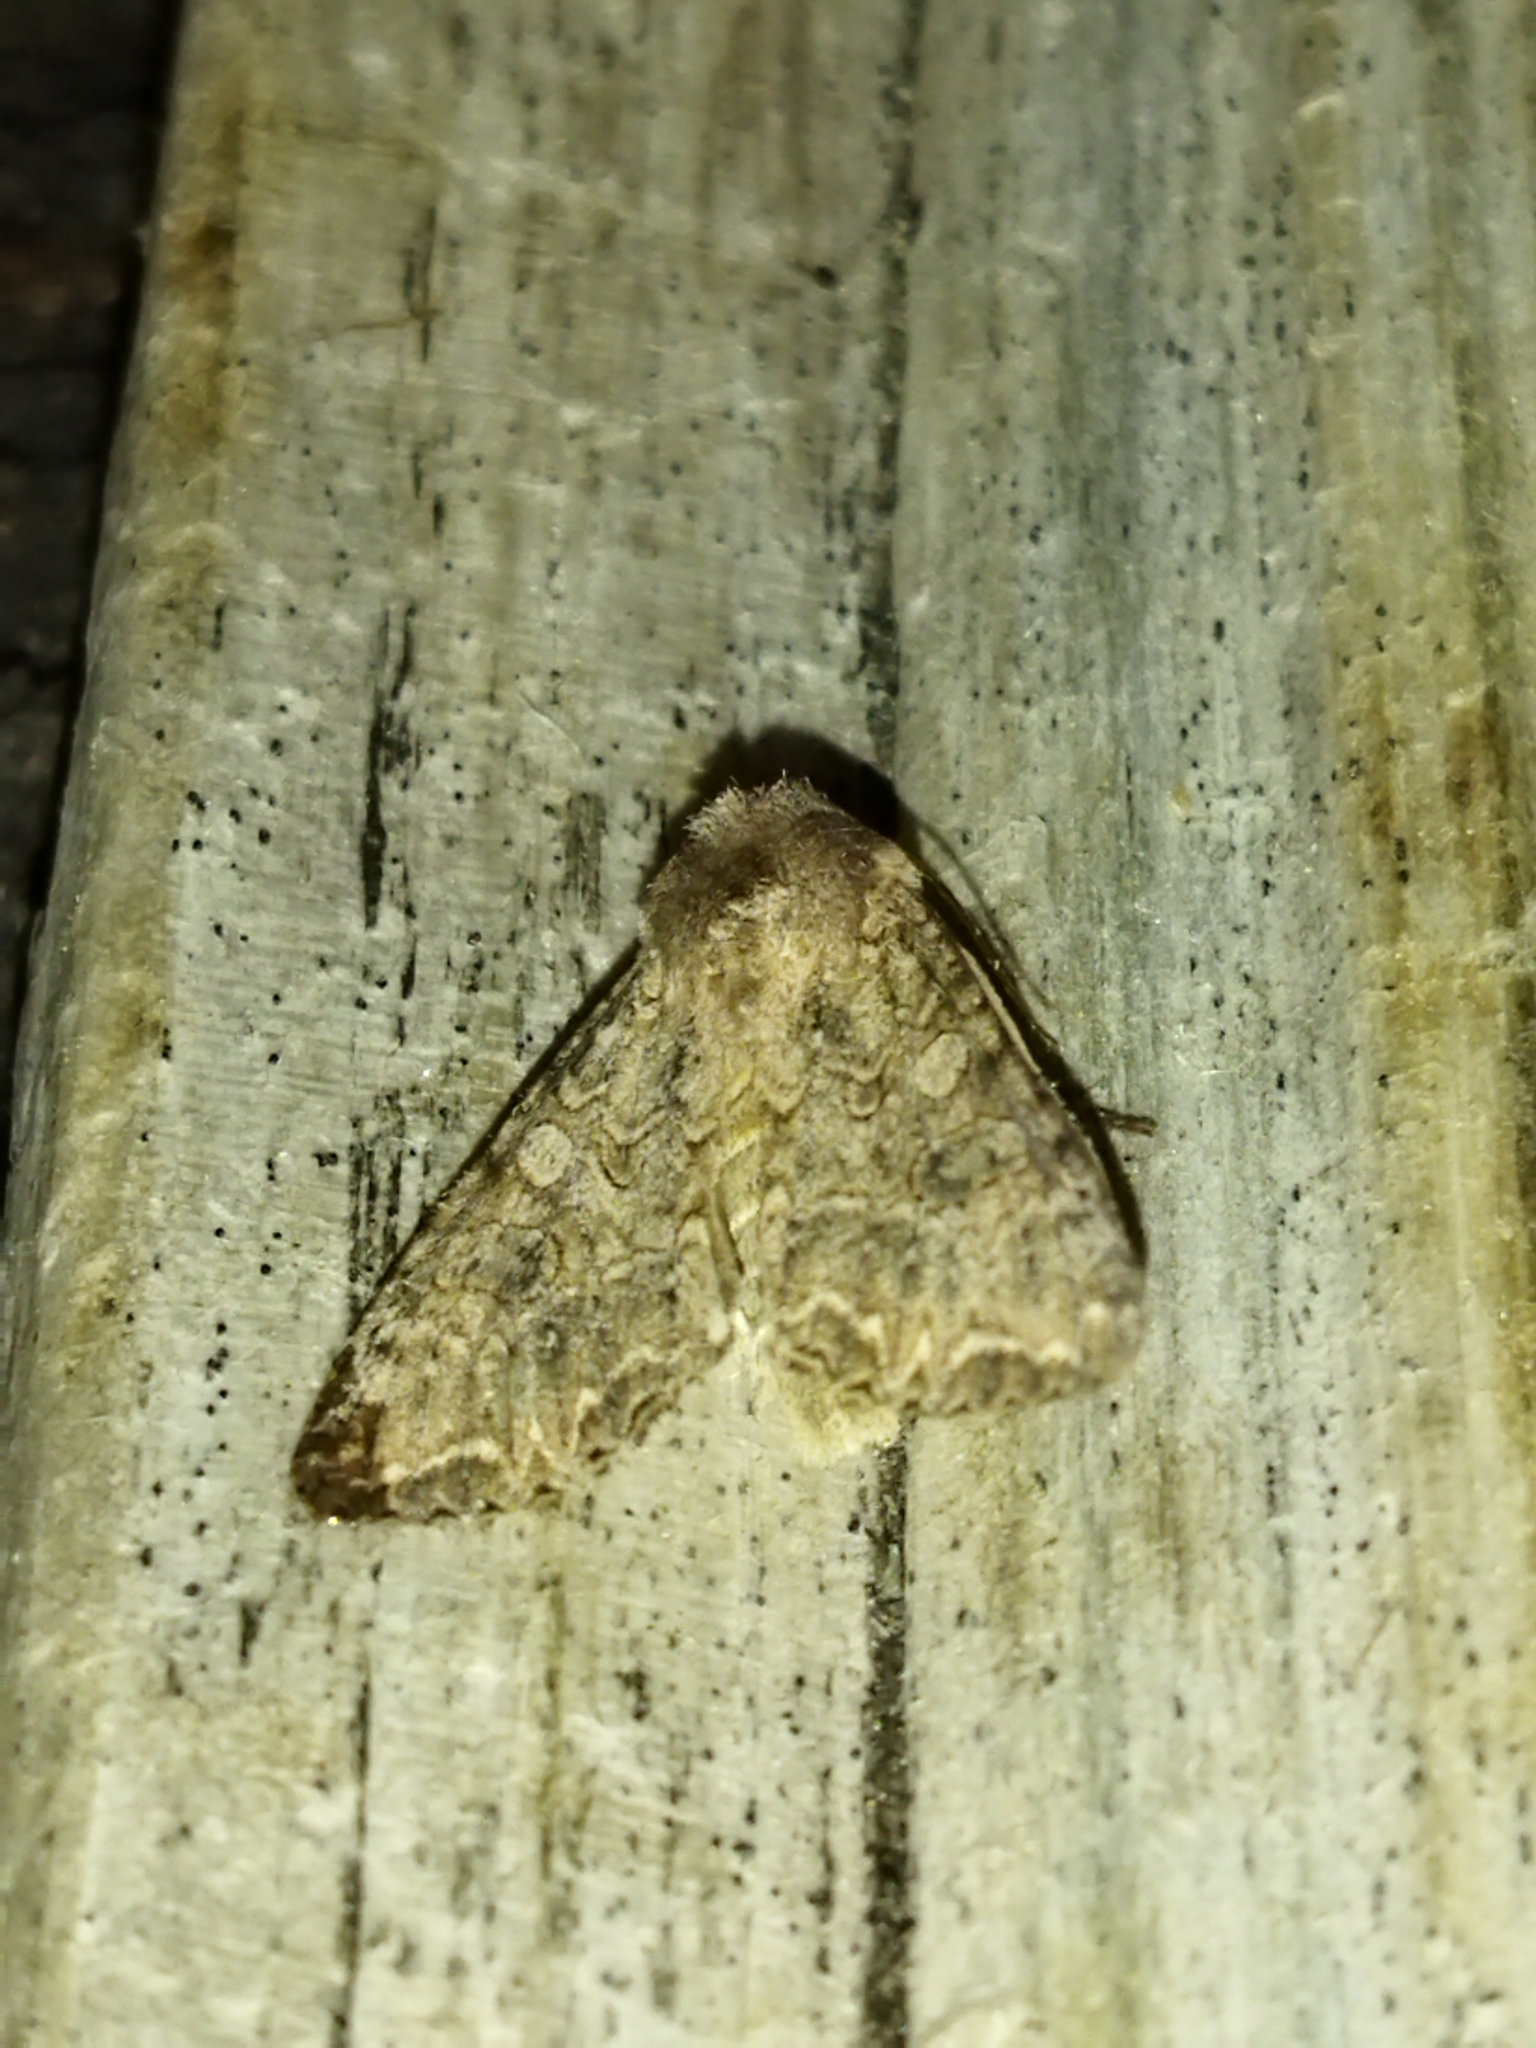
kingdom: Animalia
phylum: Arthropoda
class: Insecta
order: Lepidoptera
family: Noctuidae
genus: Anarta
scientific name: Anarta trifolii
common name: Clover cutworm moth
